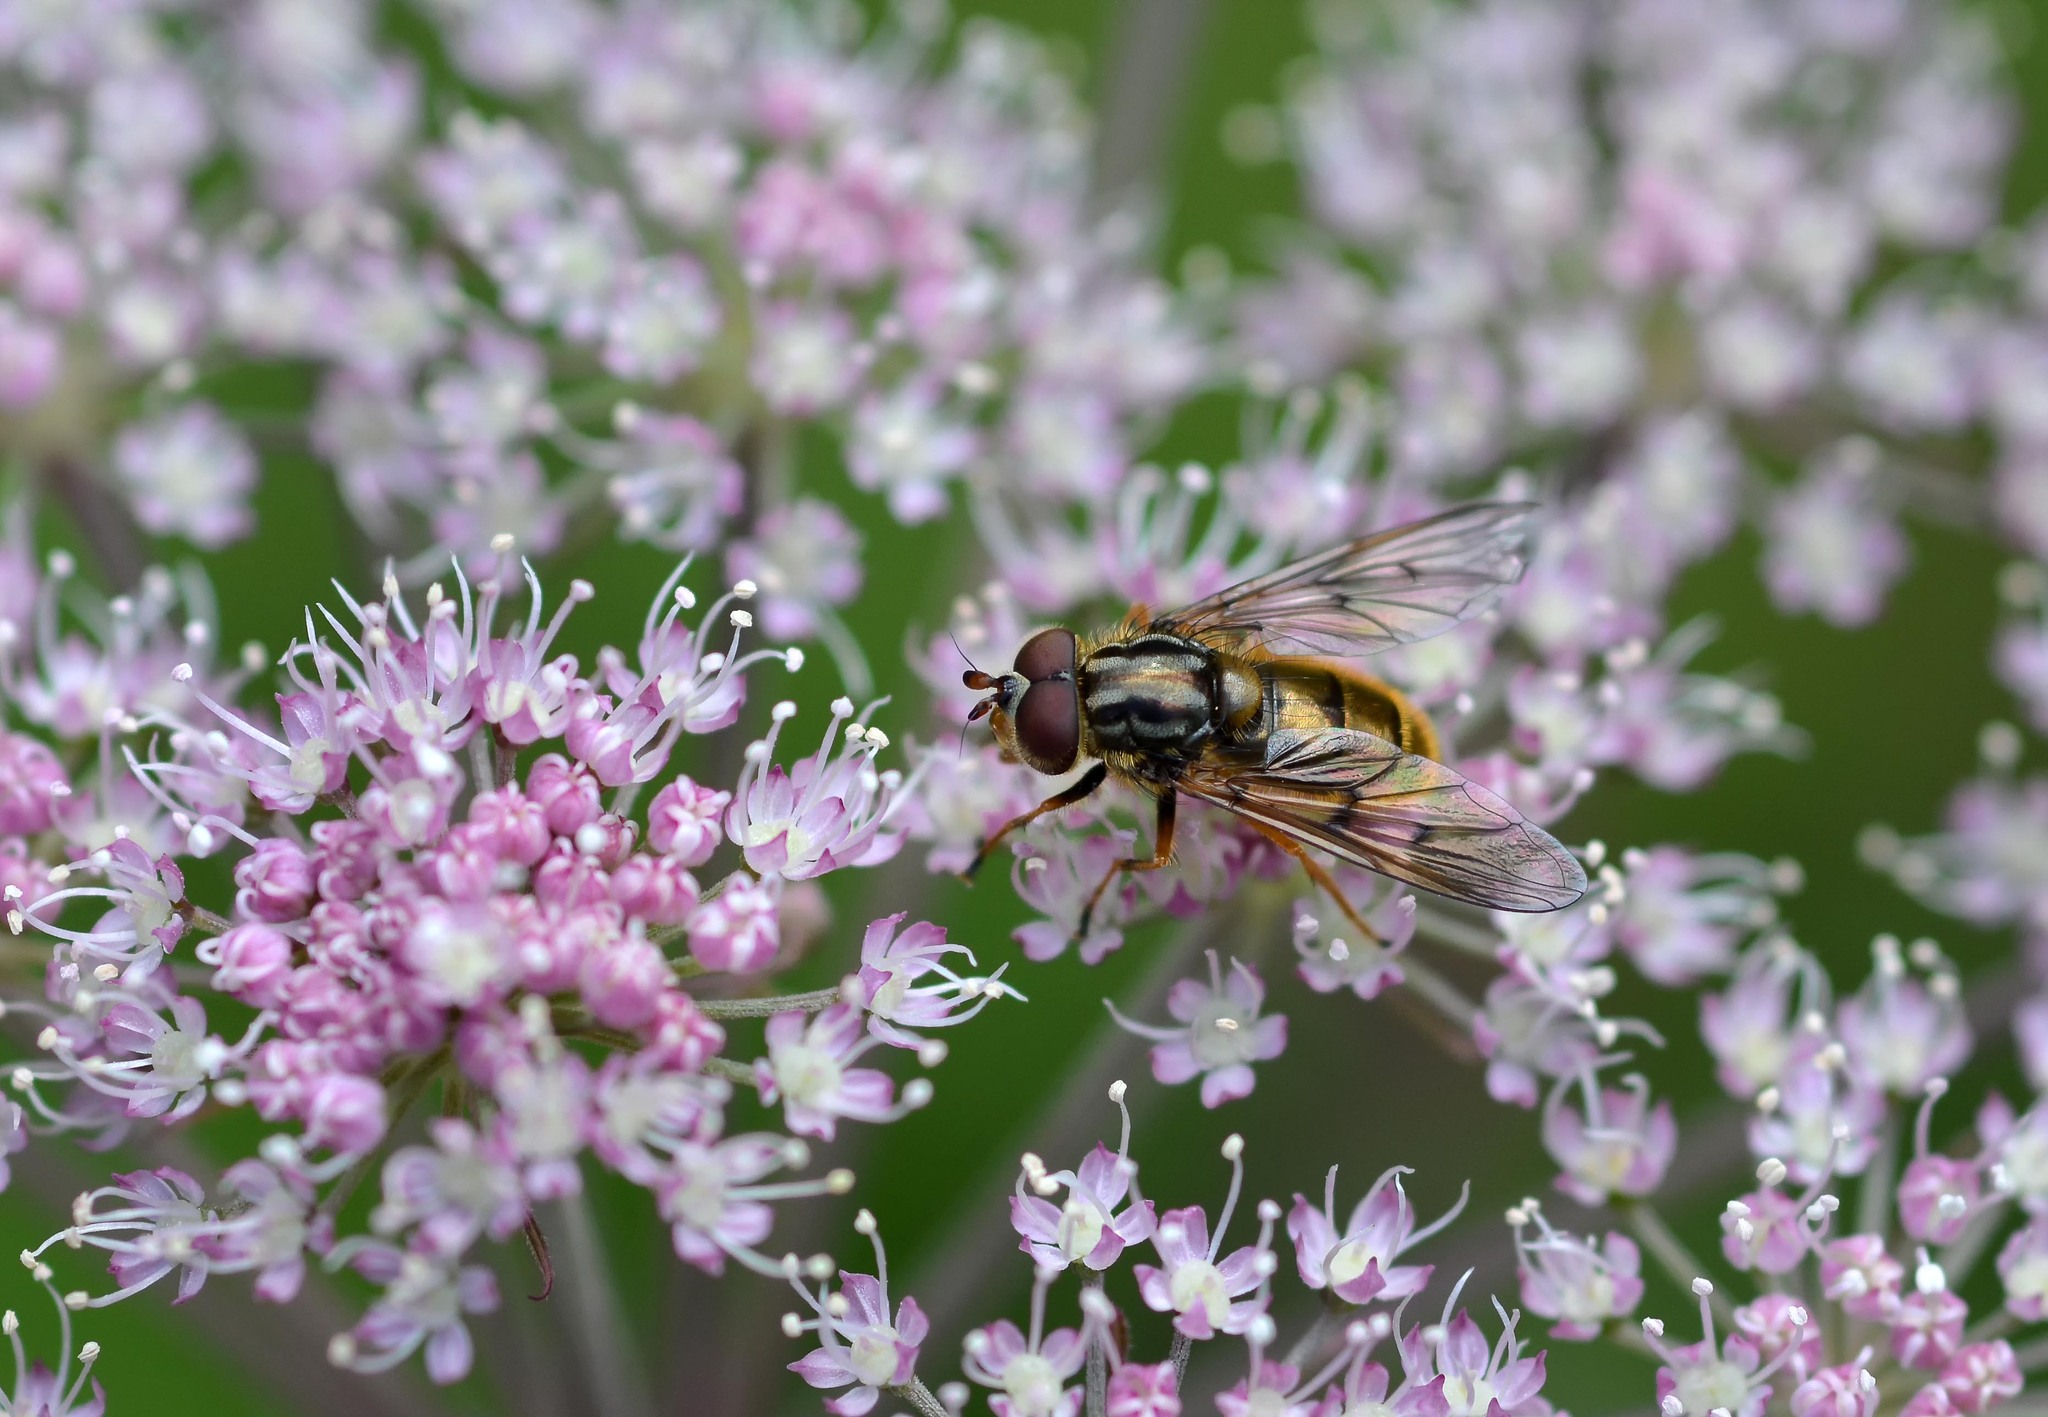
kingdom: Animalia
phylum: Arthropoda
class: Insecta
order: Diptera
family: Syrphidae
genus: Ferdinandea
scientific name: Ferdinandea cuprea
